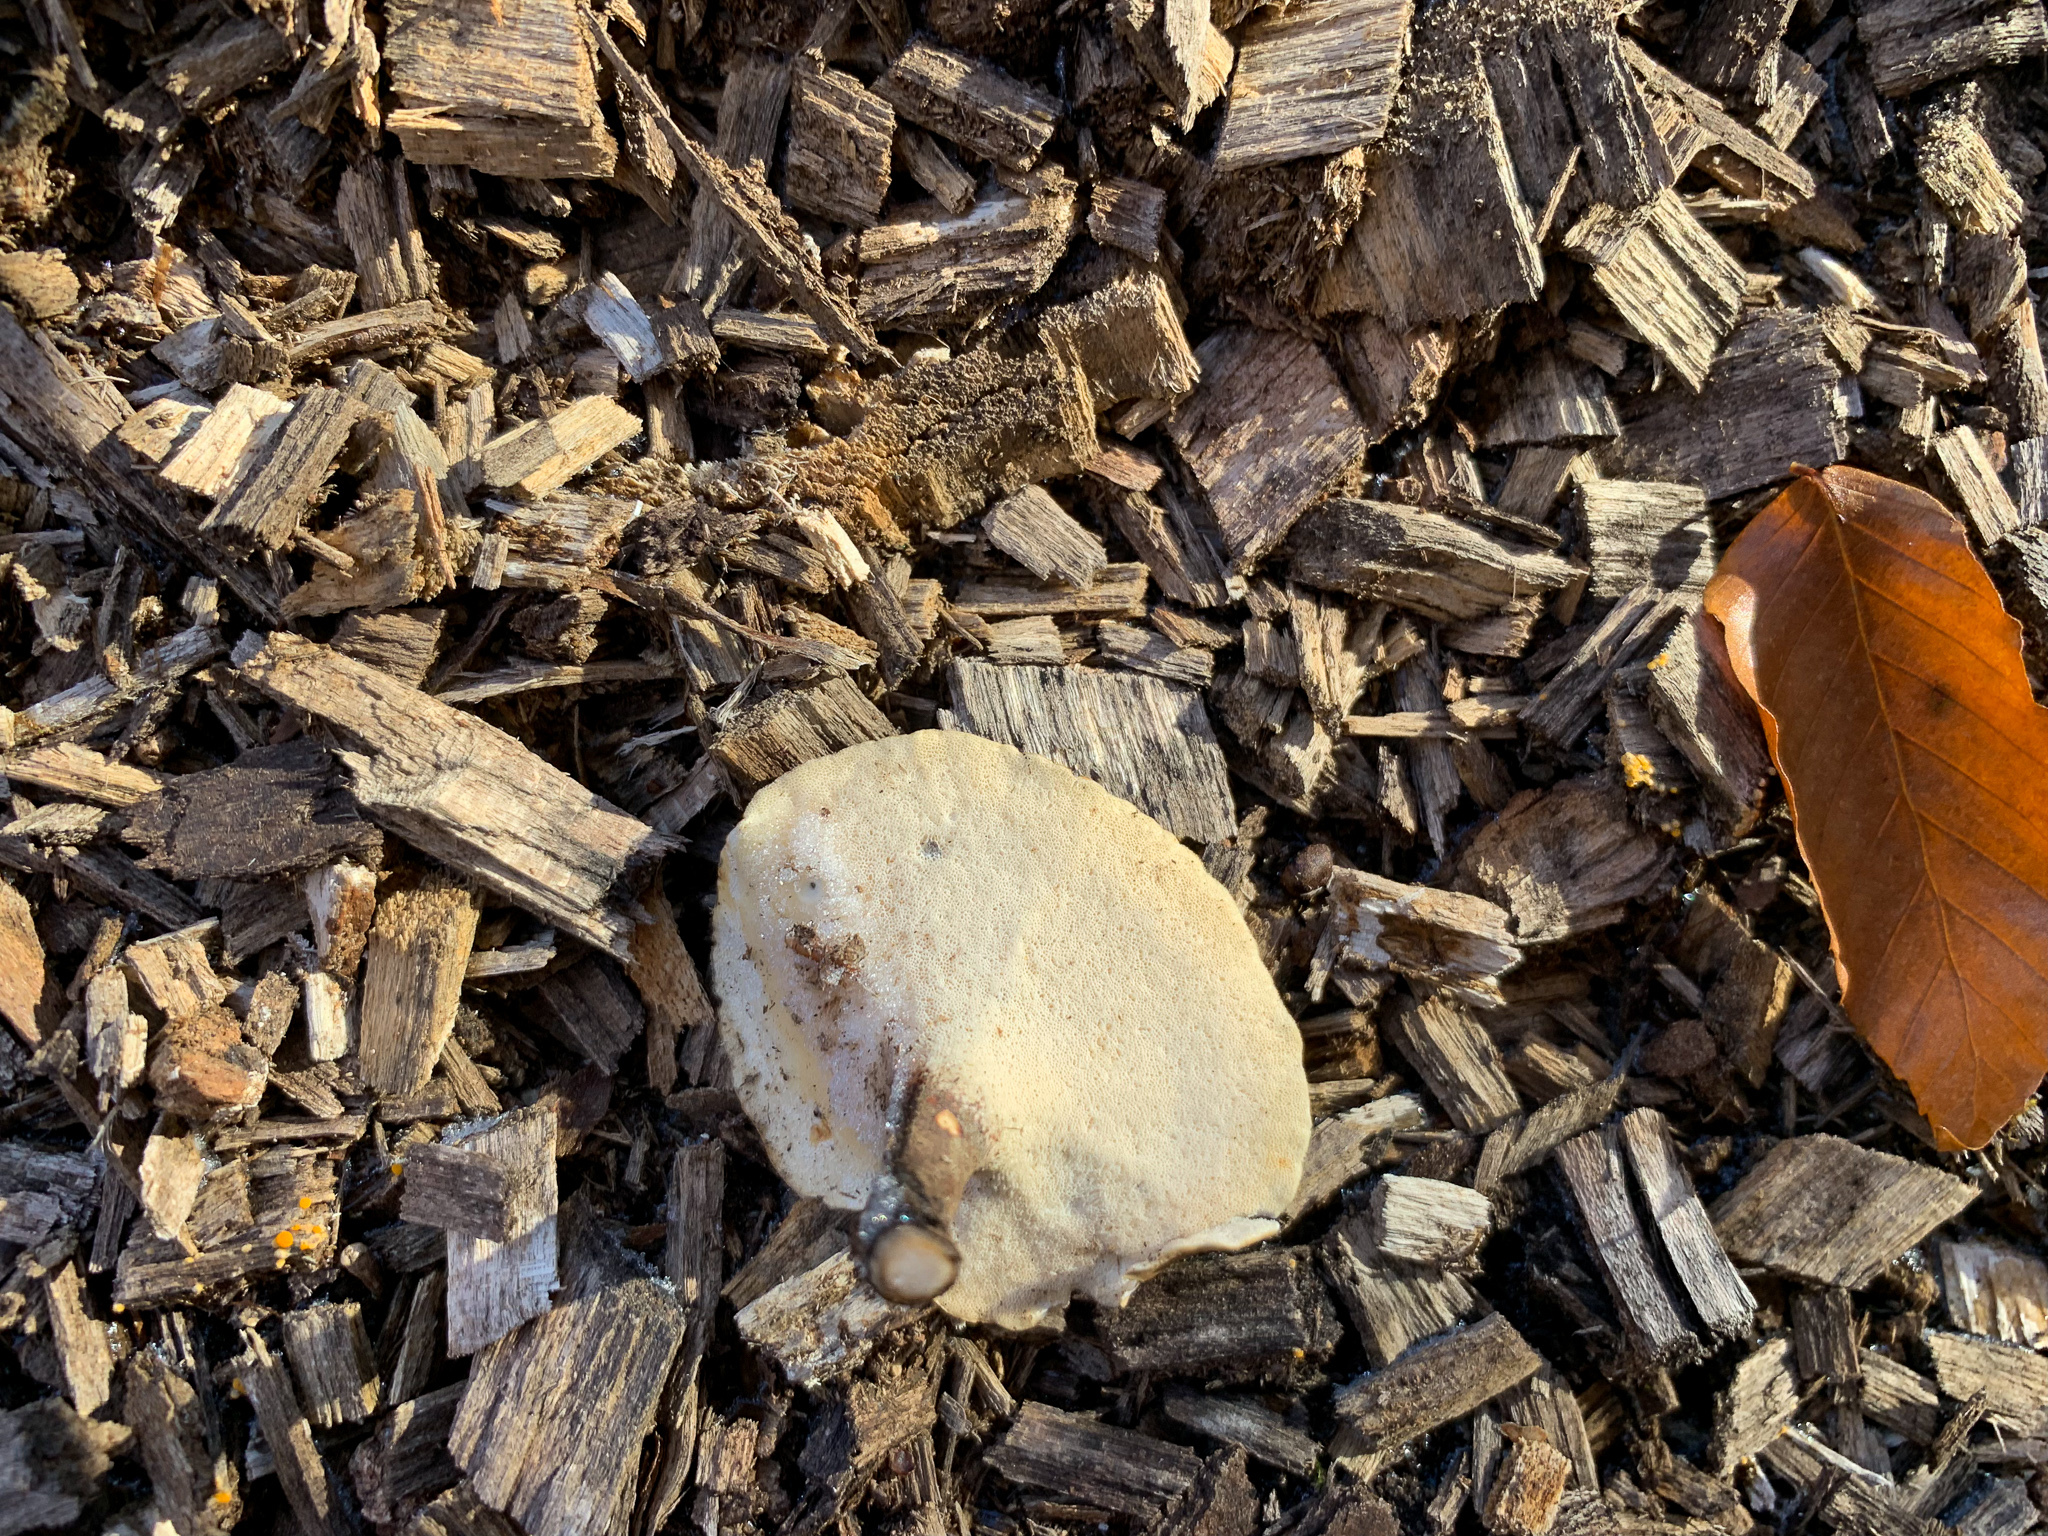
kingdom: Fungi
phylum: Basidiomycota
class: Agaricomycetes
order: Polyporales
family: Polyporaceae
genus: Lentinus
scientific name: Lentinus brumalis
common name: Winter polypore
